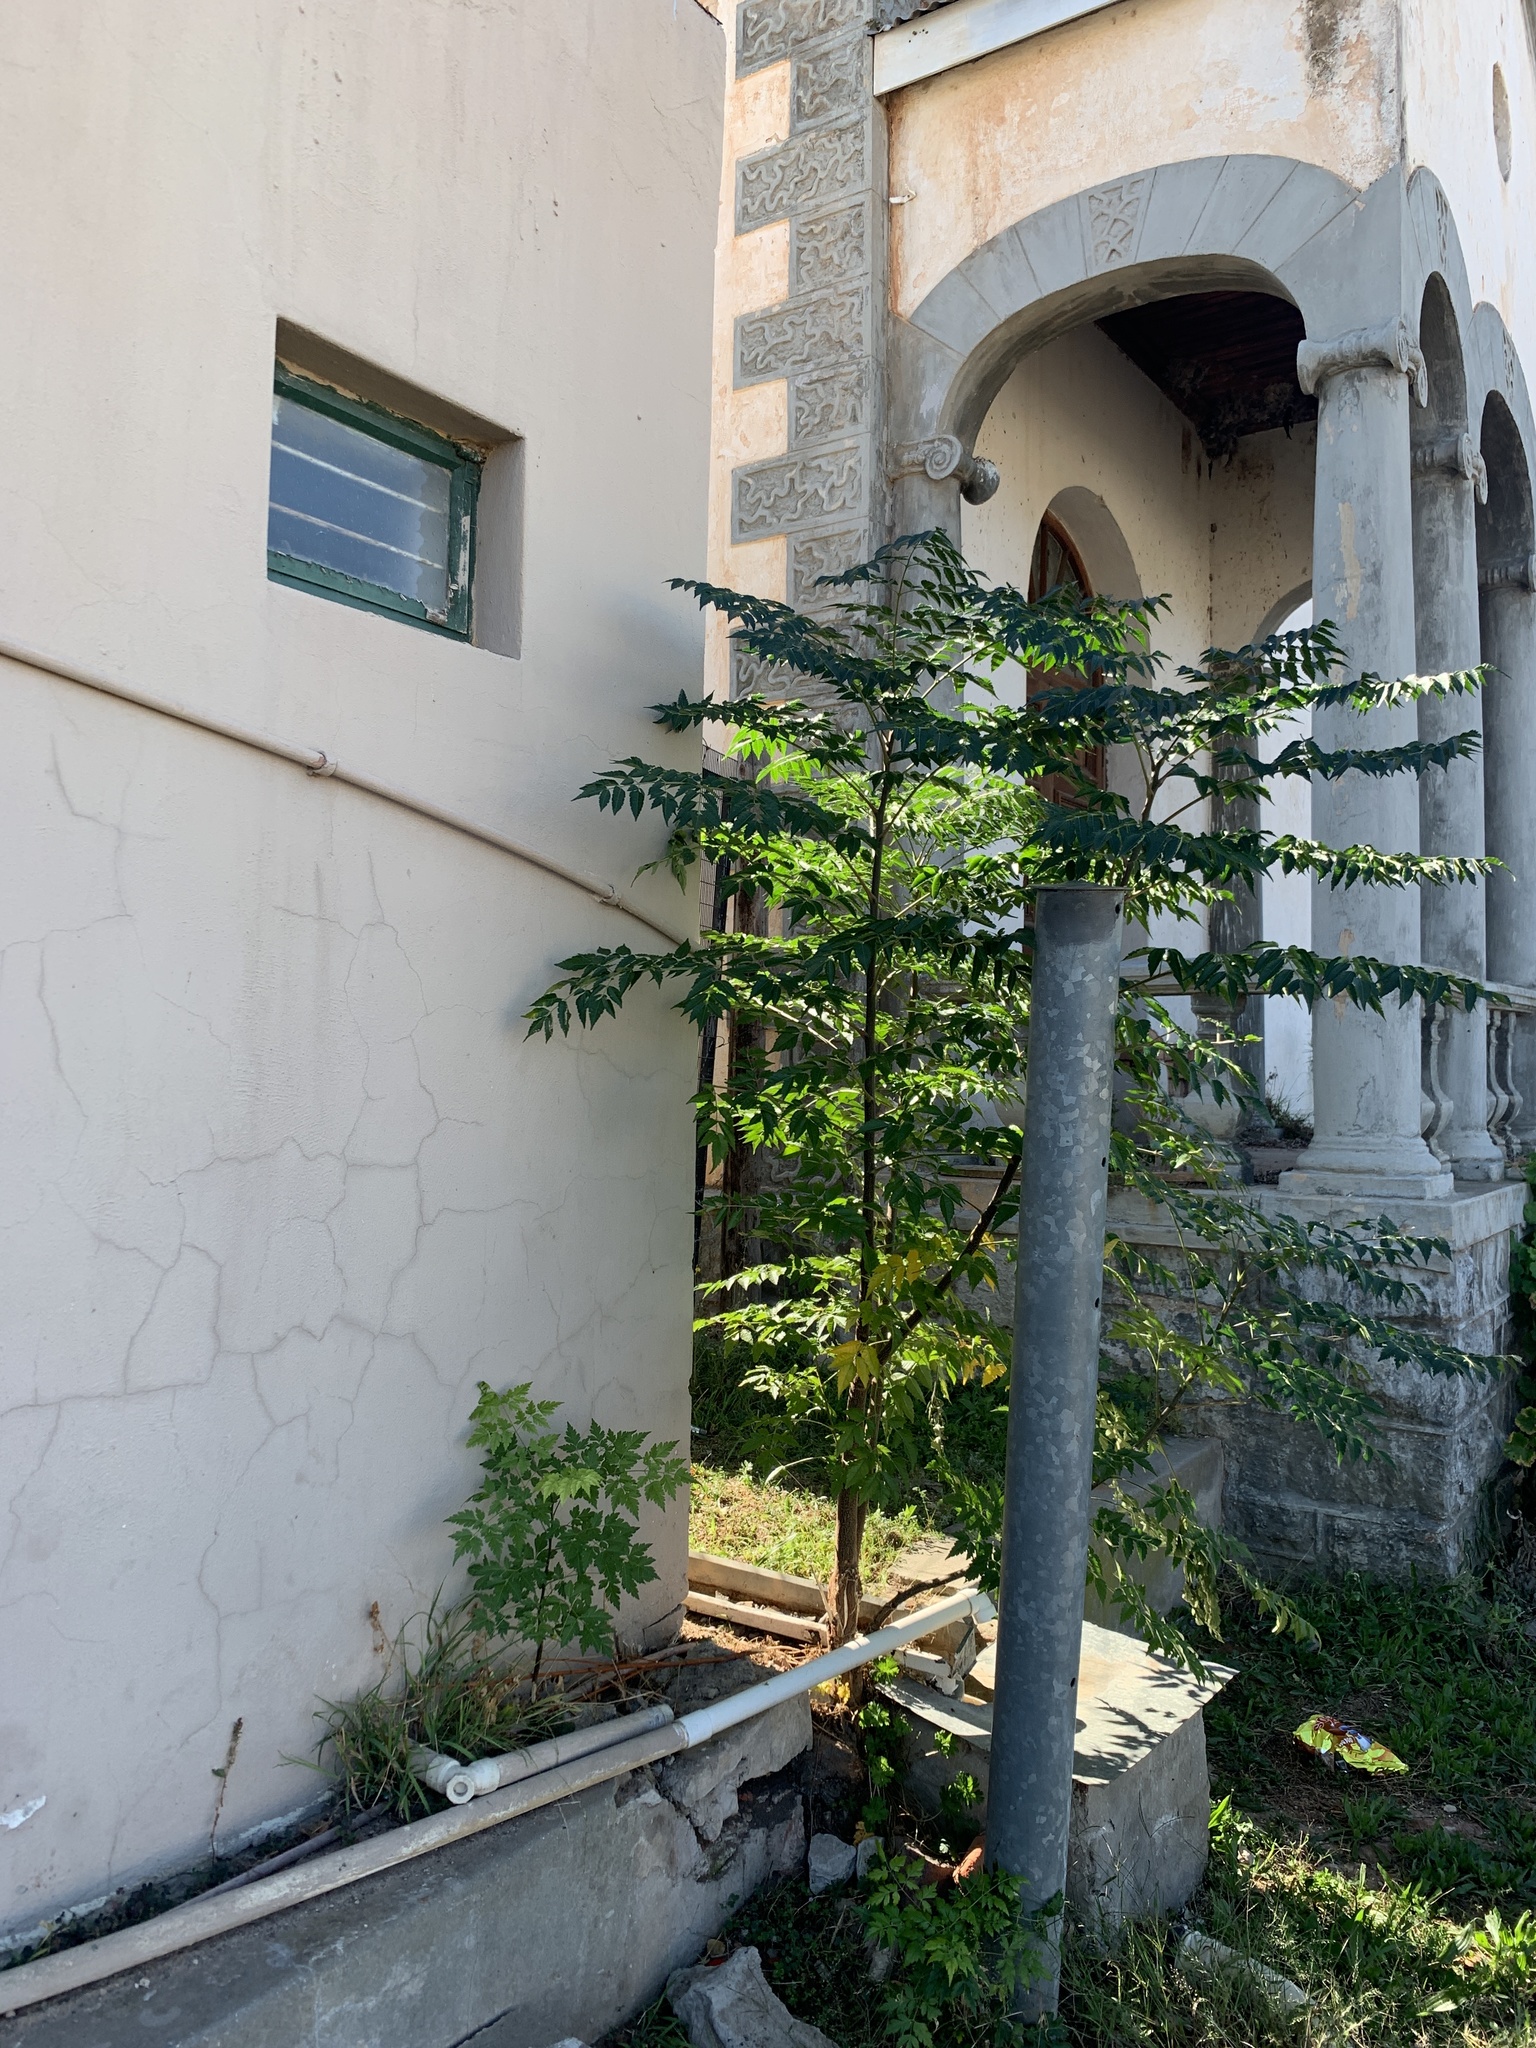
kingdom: Plantae
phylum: Tracheophyta
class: Magnoliopsida
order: Sapindales
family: Meliaceae
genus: Melia
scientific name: Melia azedarach
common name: Chinaberrytree
